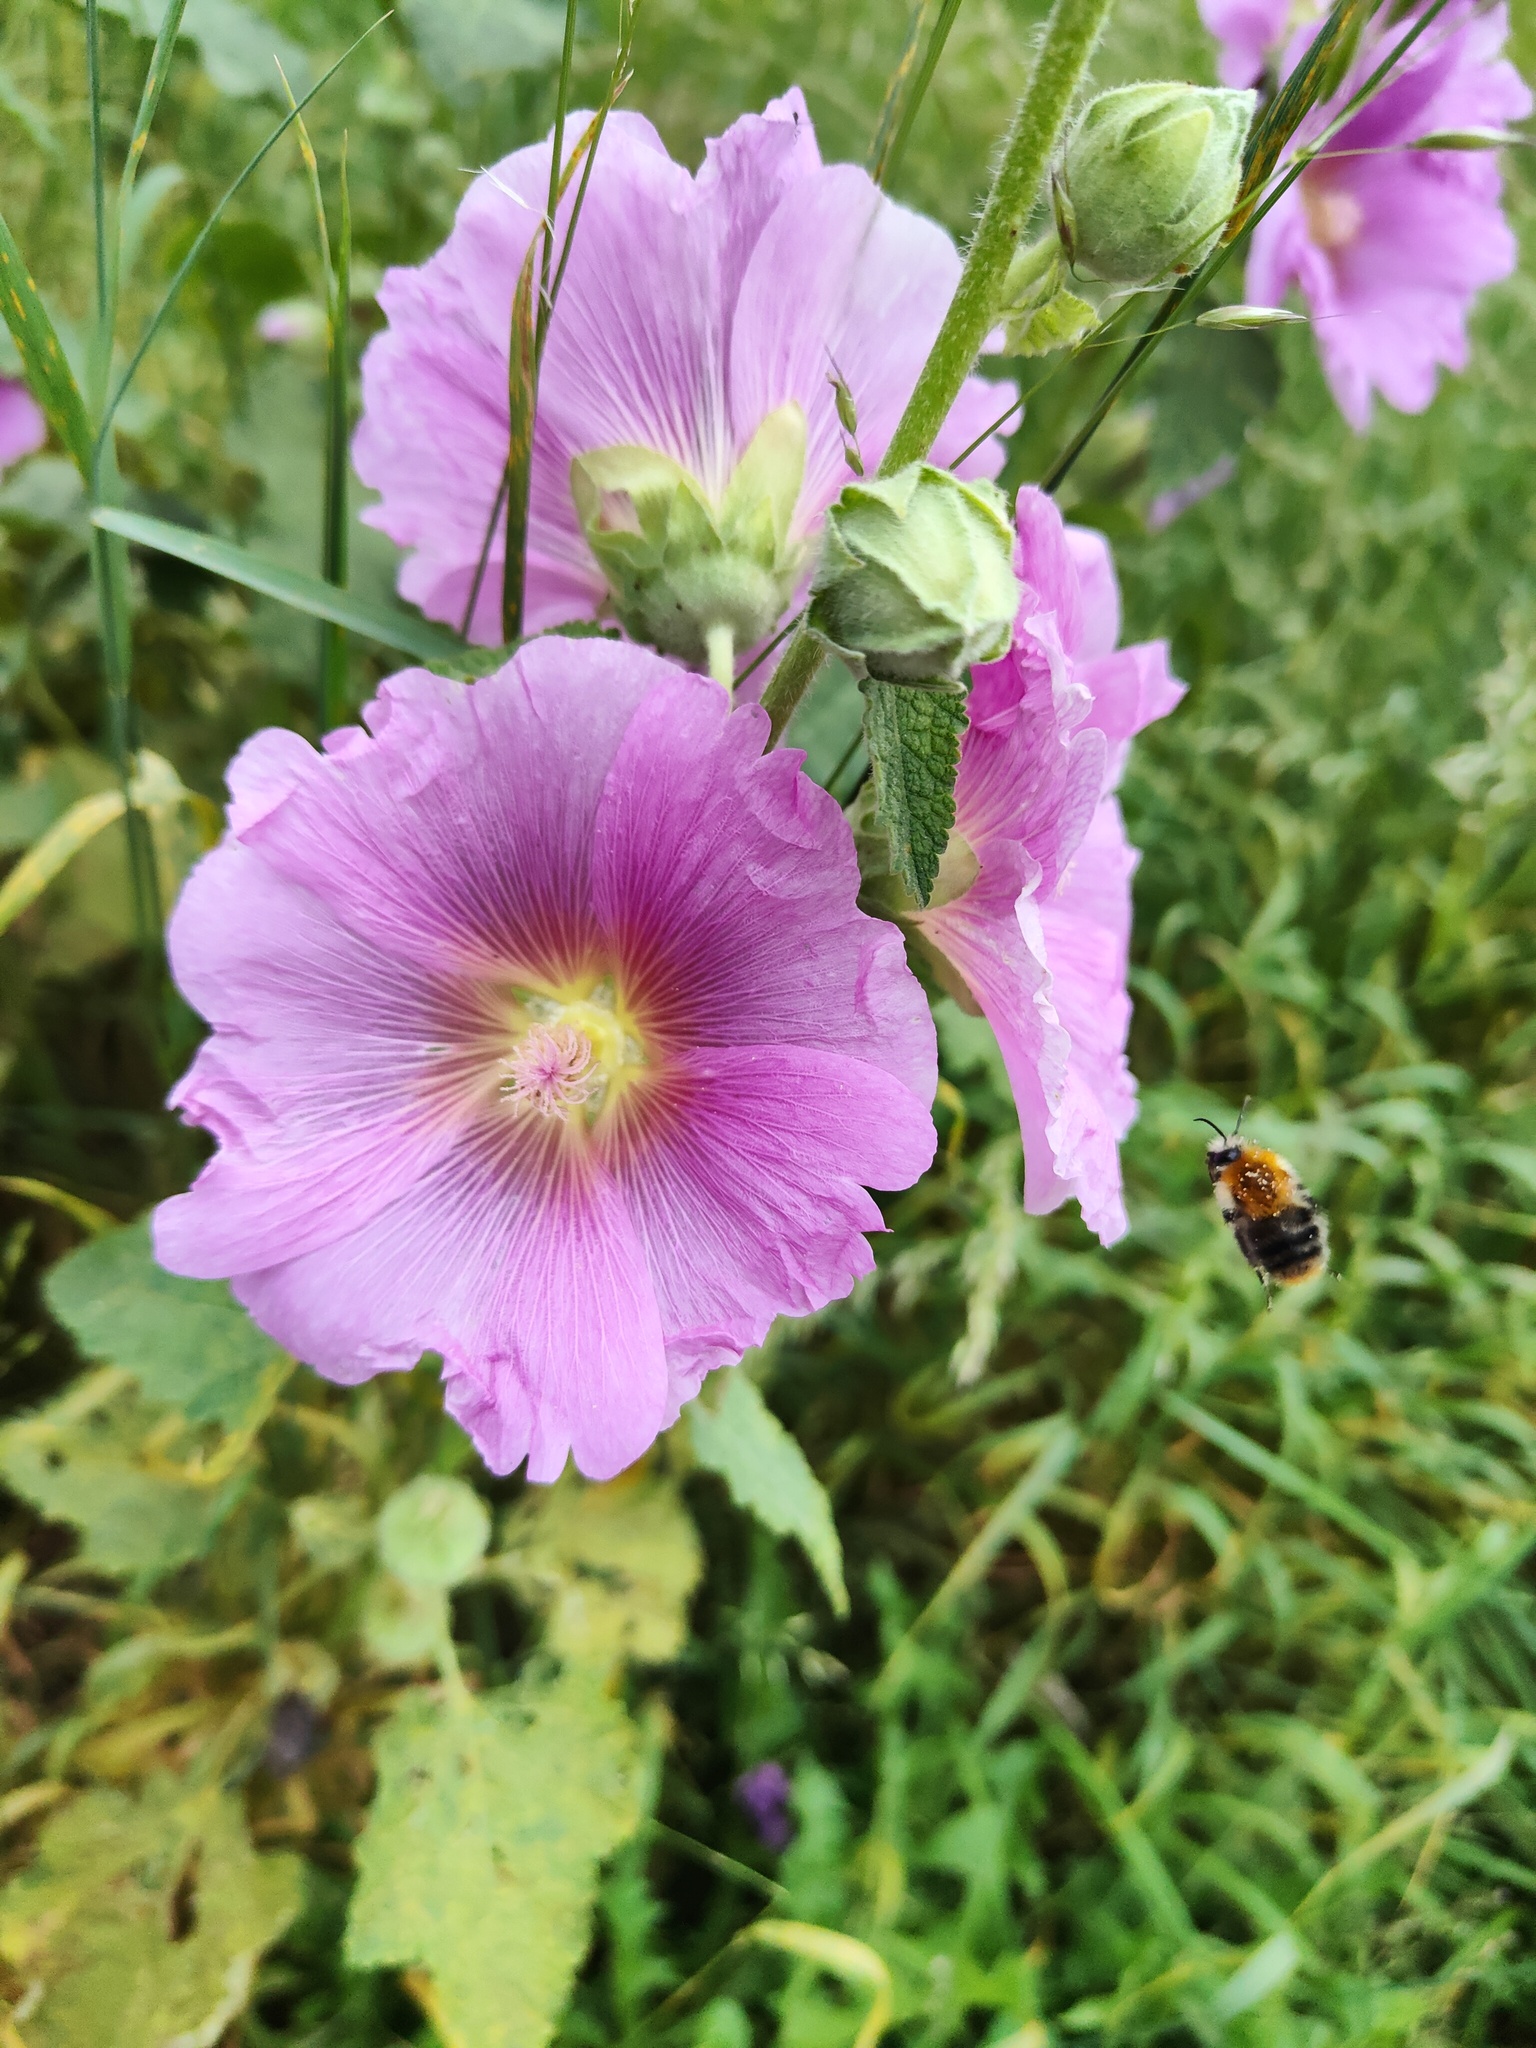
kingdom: Plantae
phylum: Tracheophyta
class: Magnoliopsida
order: Malvales
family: Malvaceae
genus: Malva
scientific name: Malva moschata
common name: Musk mallow
